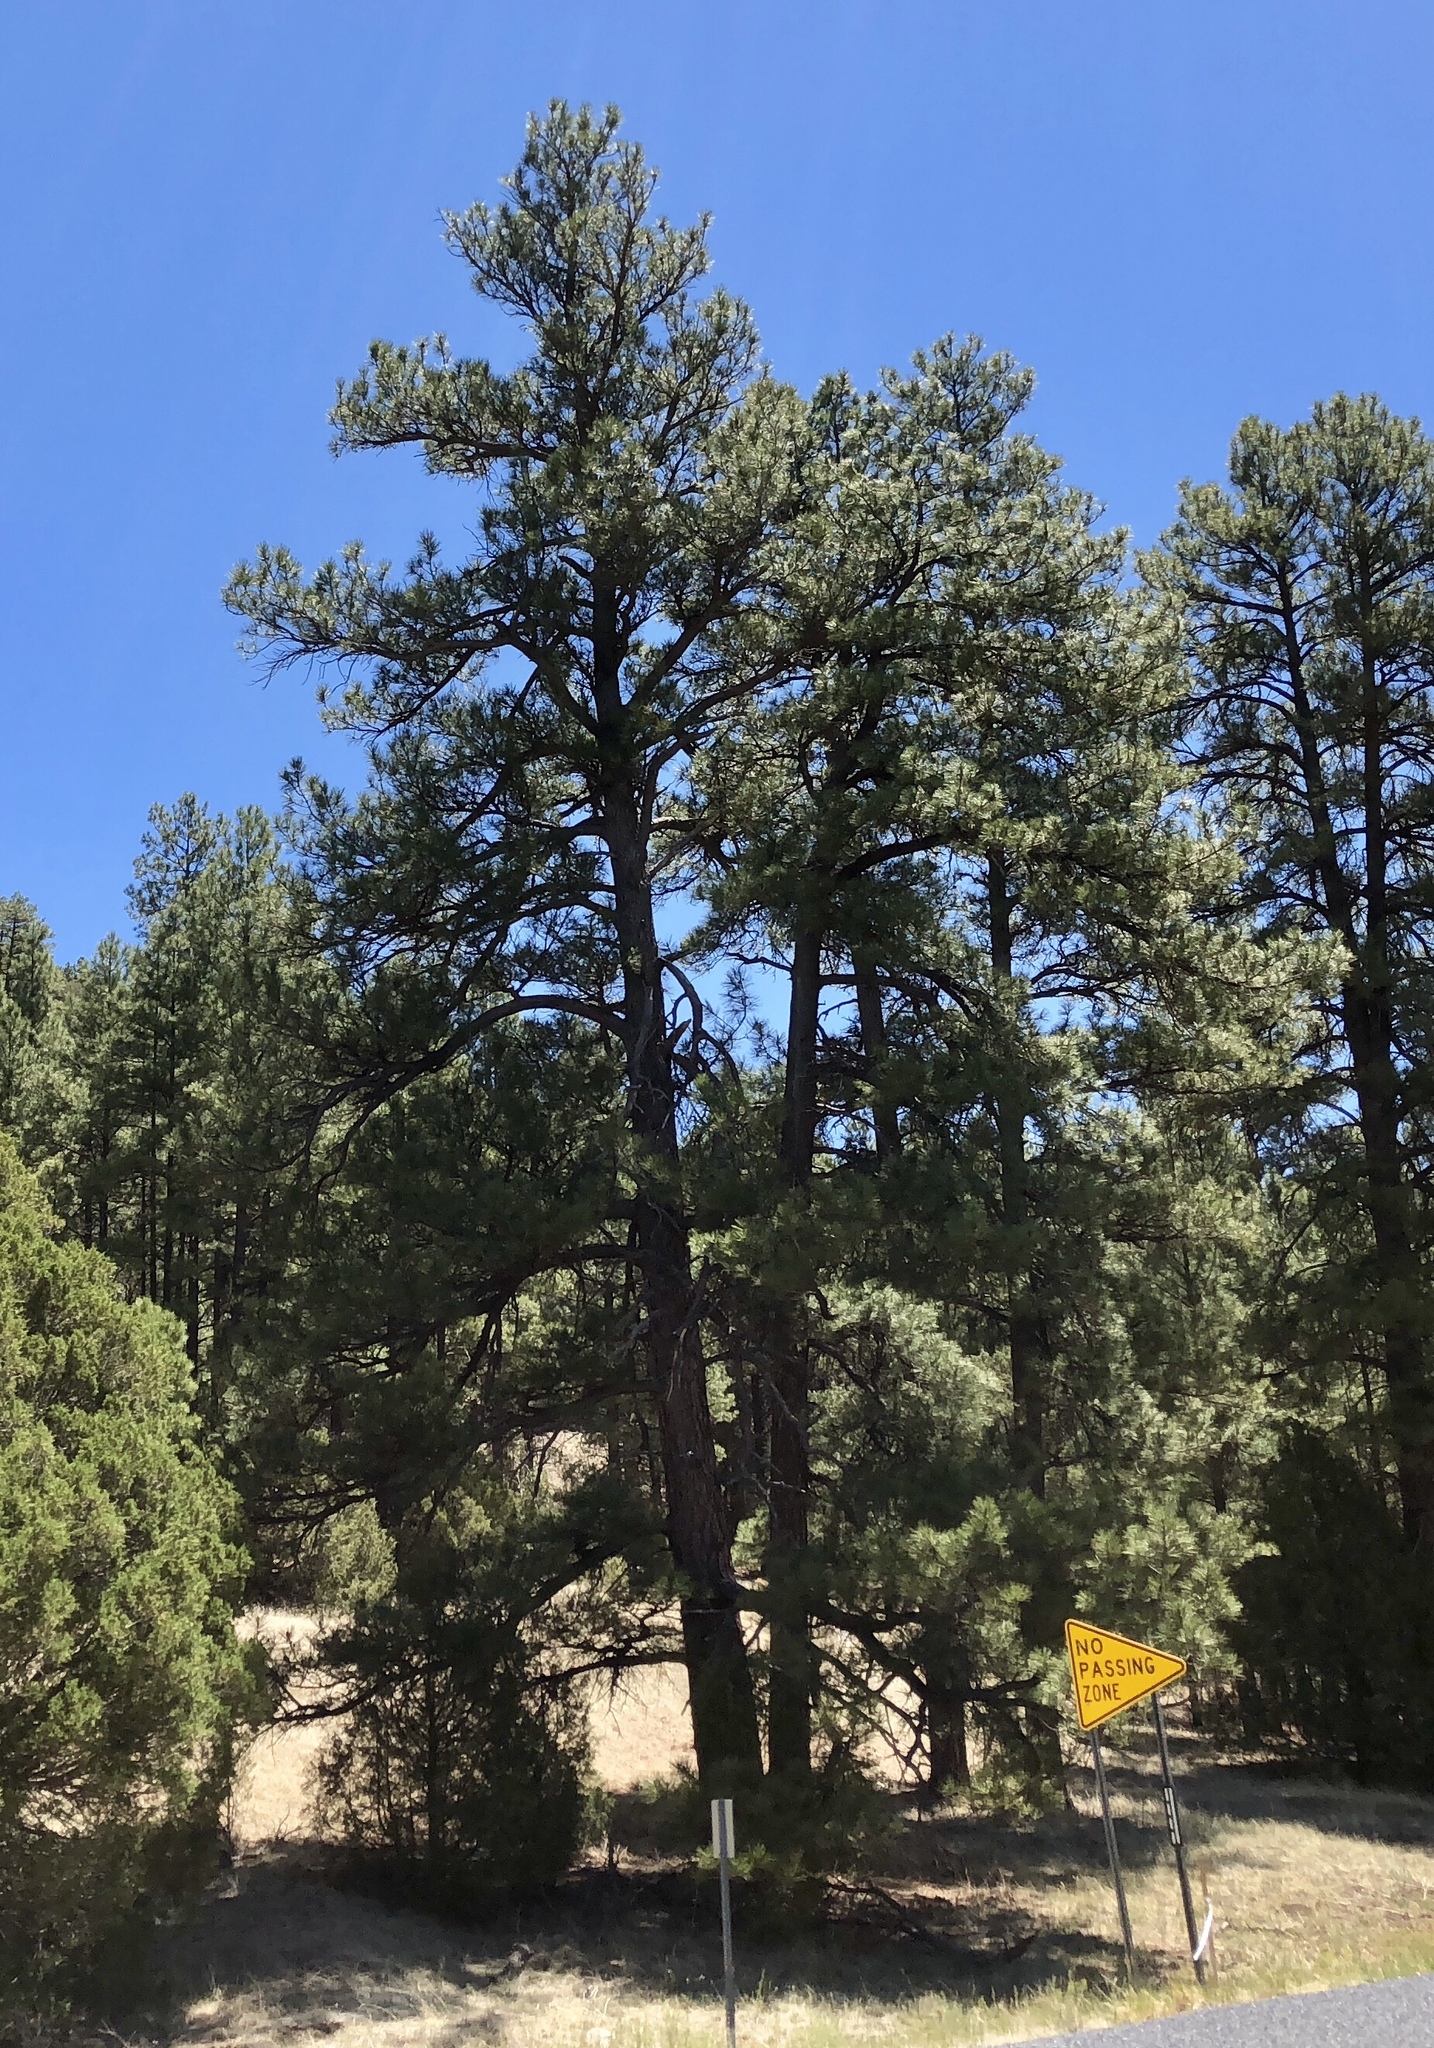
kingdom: Plantae
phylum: Tracheophyta
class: Pinopsida
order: Pinales
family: Pinaceae
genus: Pinus
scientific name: Pinus ponderosa
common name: Western yellow-pine
